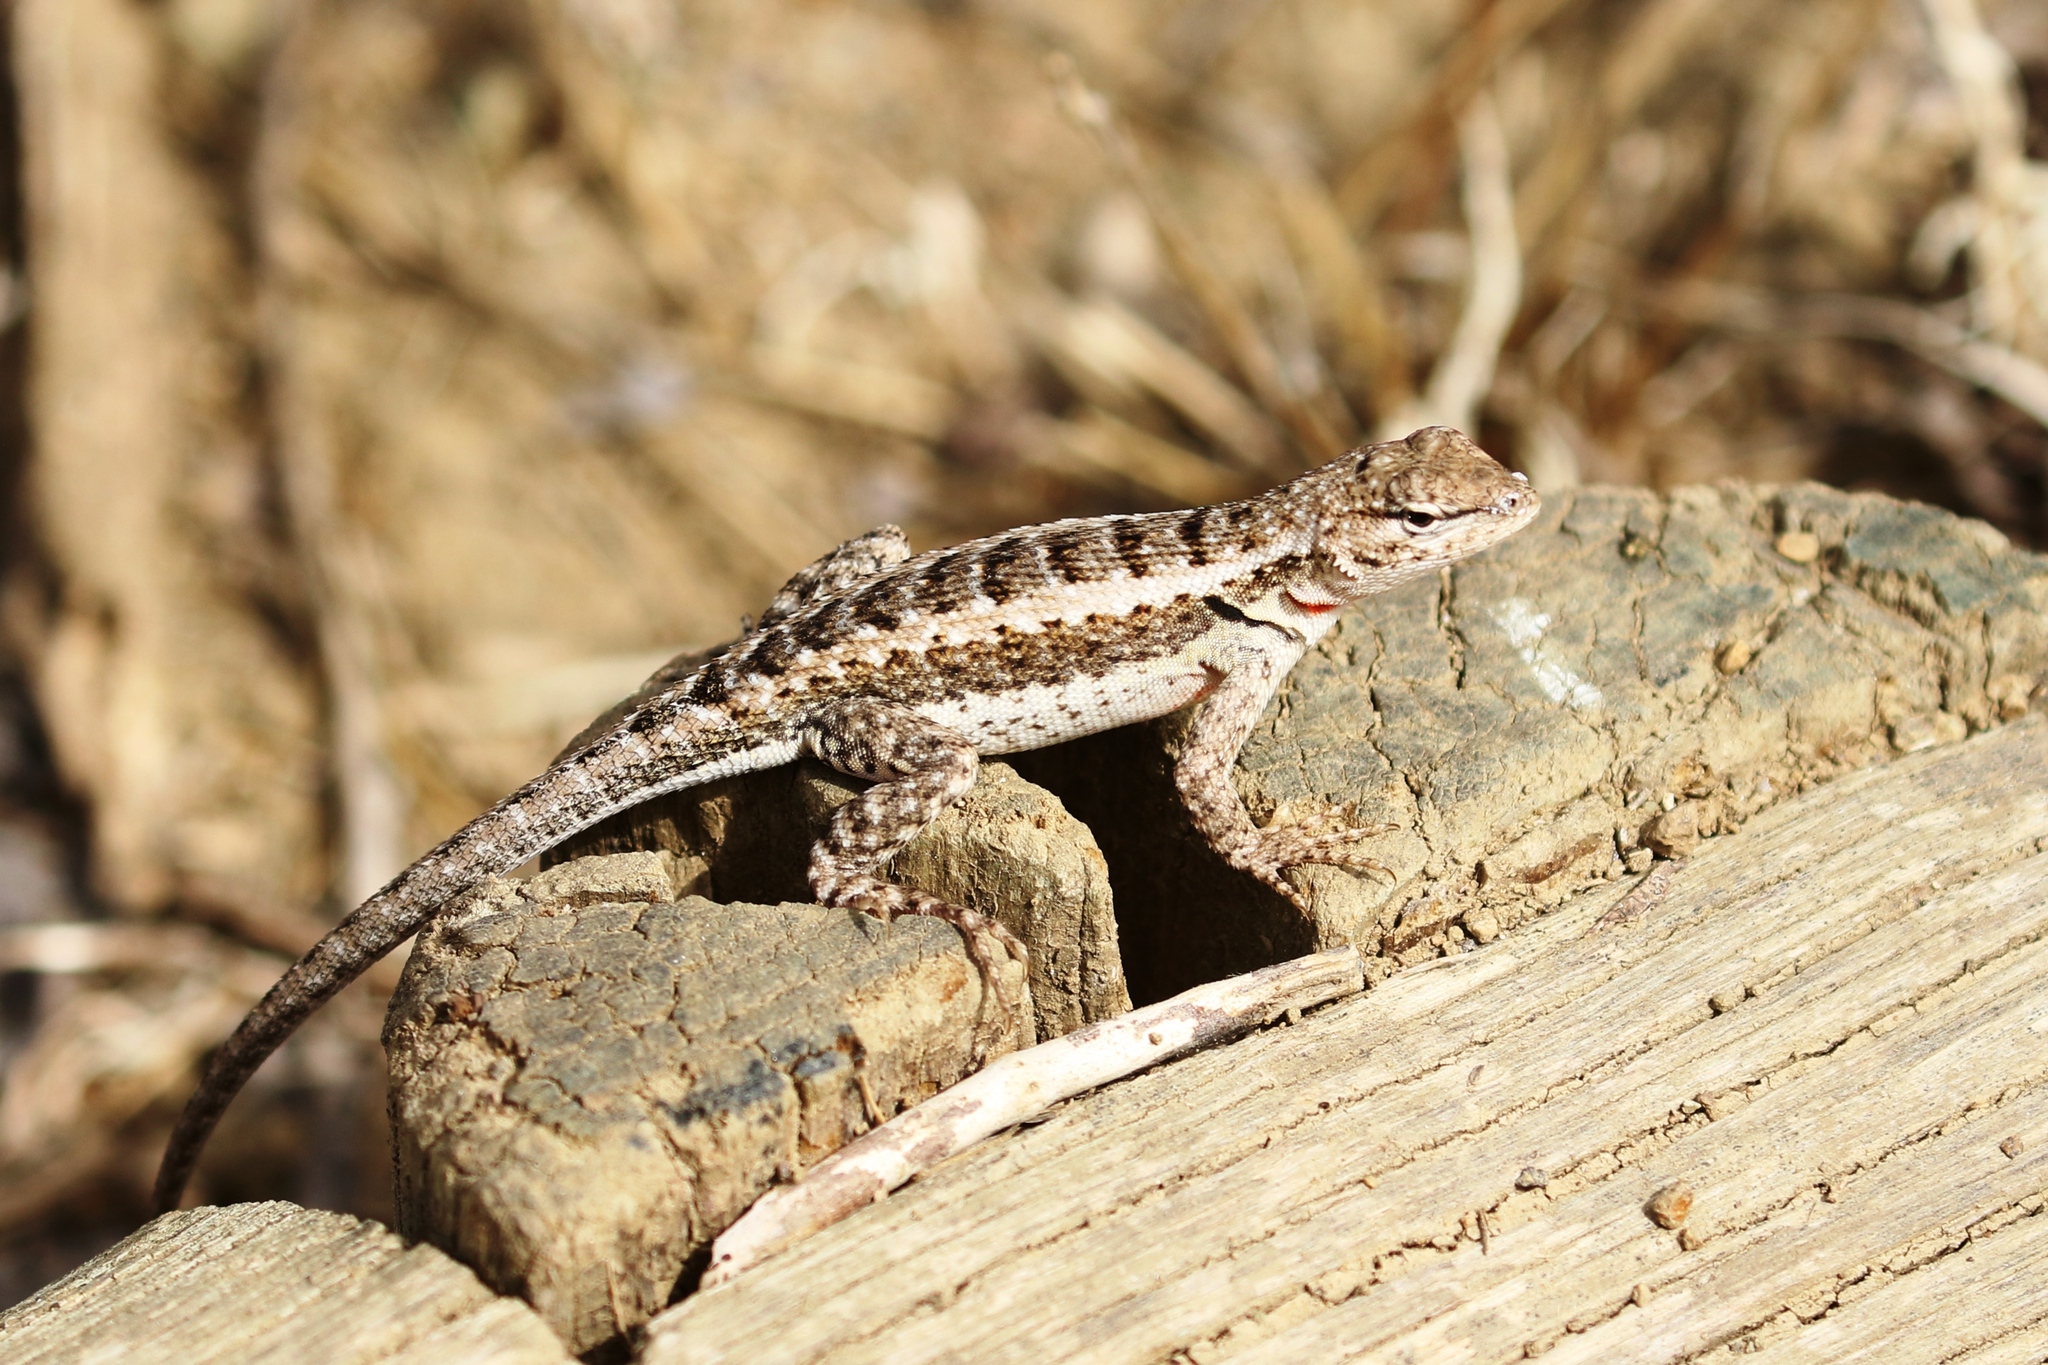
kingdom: Animalia
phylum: Chordata
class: Squamata
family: Tropiduridae
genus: Microlophus
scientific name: Microlophus occipitalis
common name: Knobbed pacific iguana
